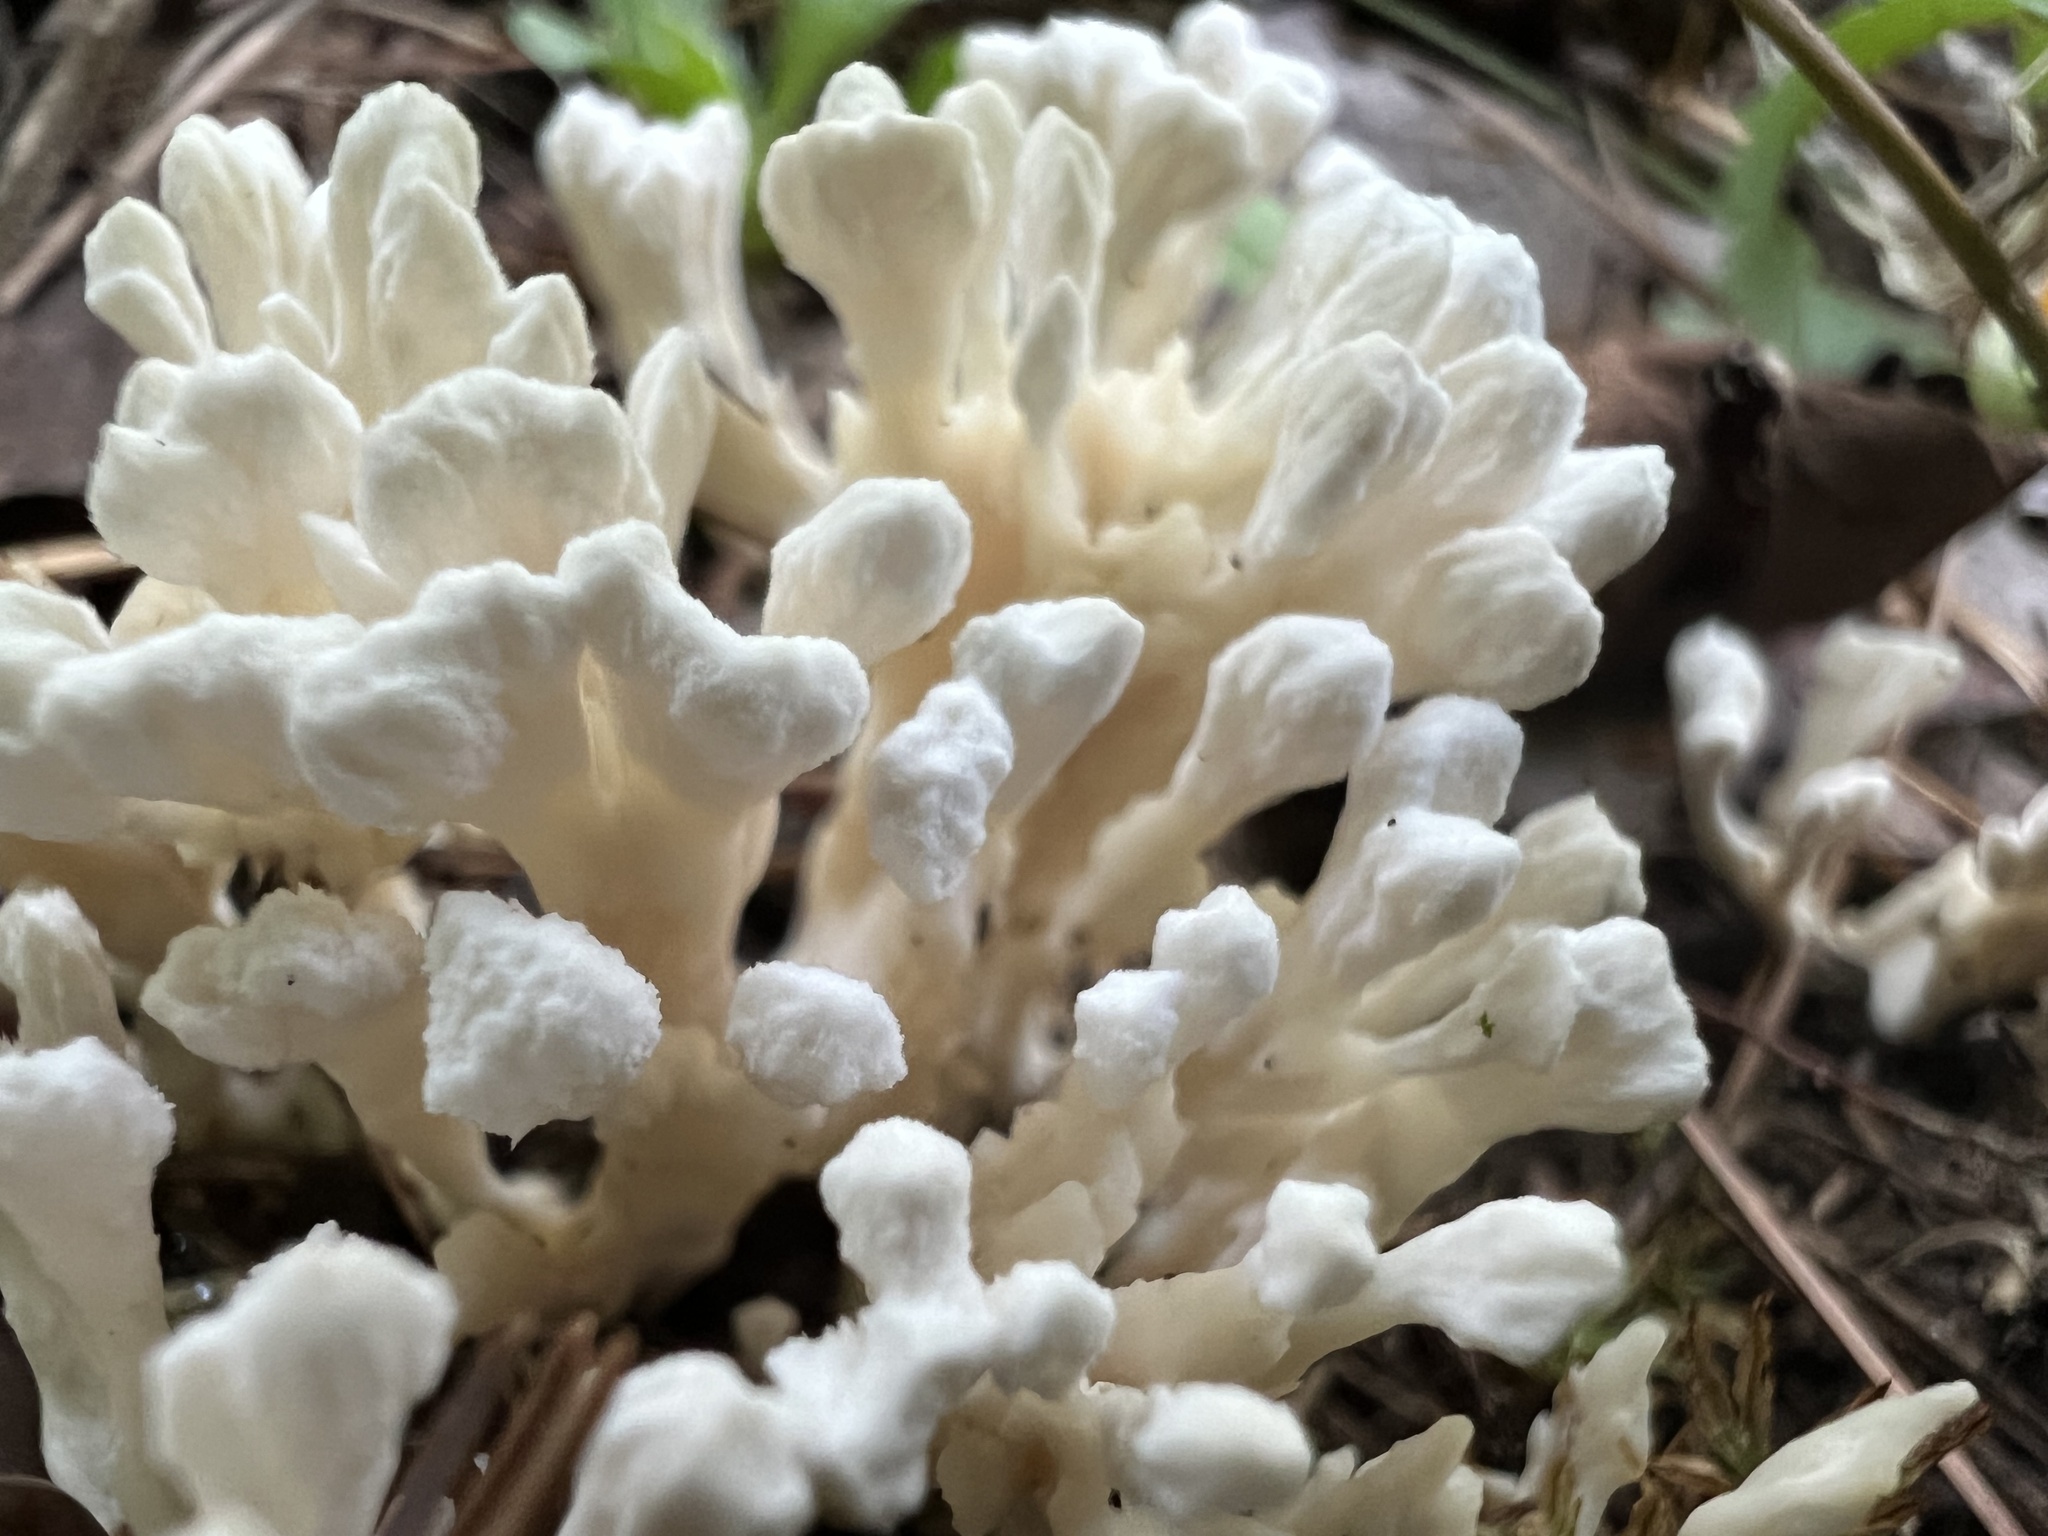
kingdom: Fungi
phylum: Basidiomycota
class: Agaricomycetes
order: Sebacinales
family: Sebacinaceae
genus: Sebacina
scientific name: Sebacina schweinitzii
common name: Jellied false coral fungus
